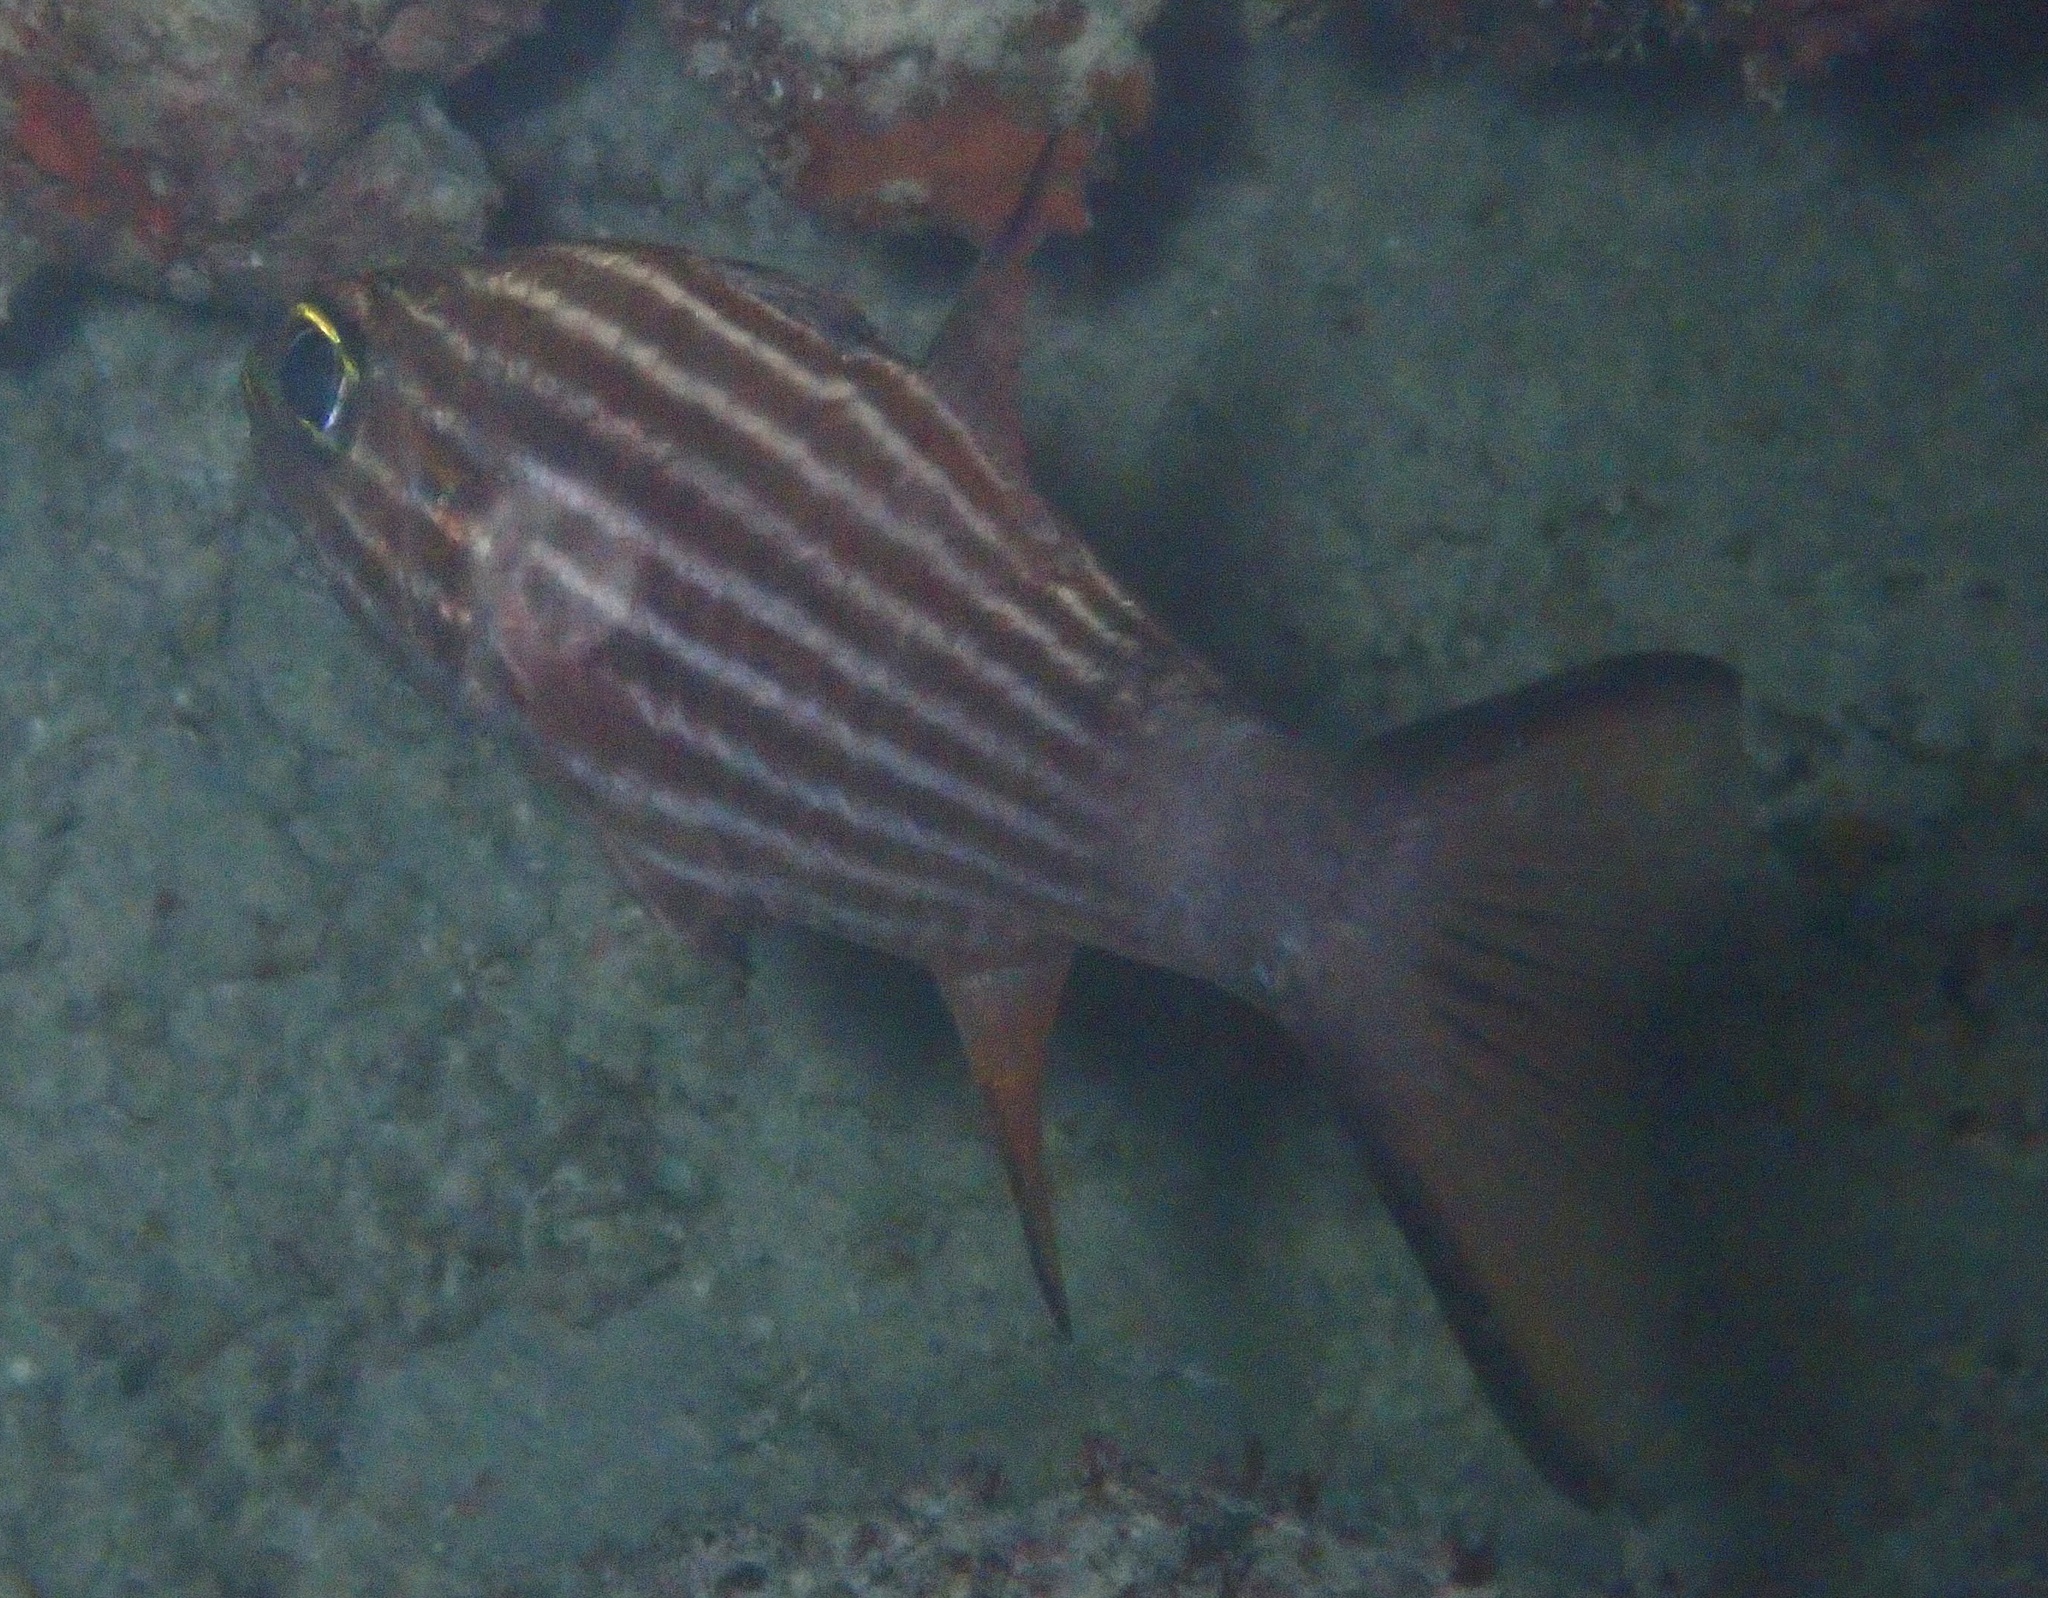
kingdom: Animalia
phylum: Chordata
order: Perciformes
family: Apogonidae
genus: Cheilodipterus
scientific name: Cheilodipterus macrodon
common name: Eight-lined cardinalfish
